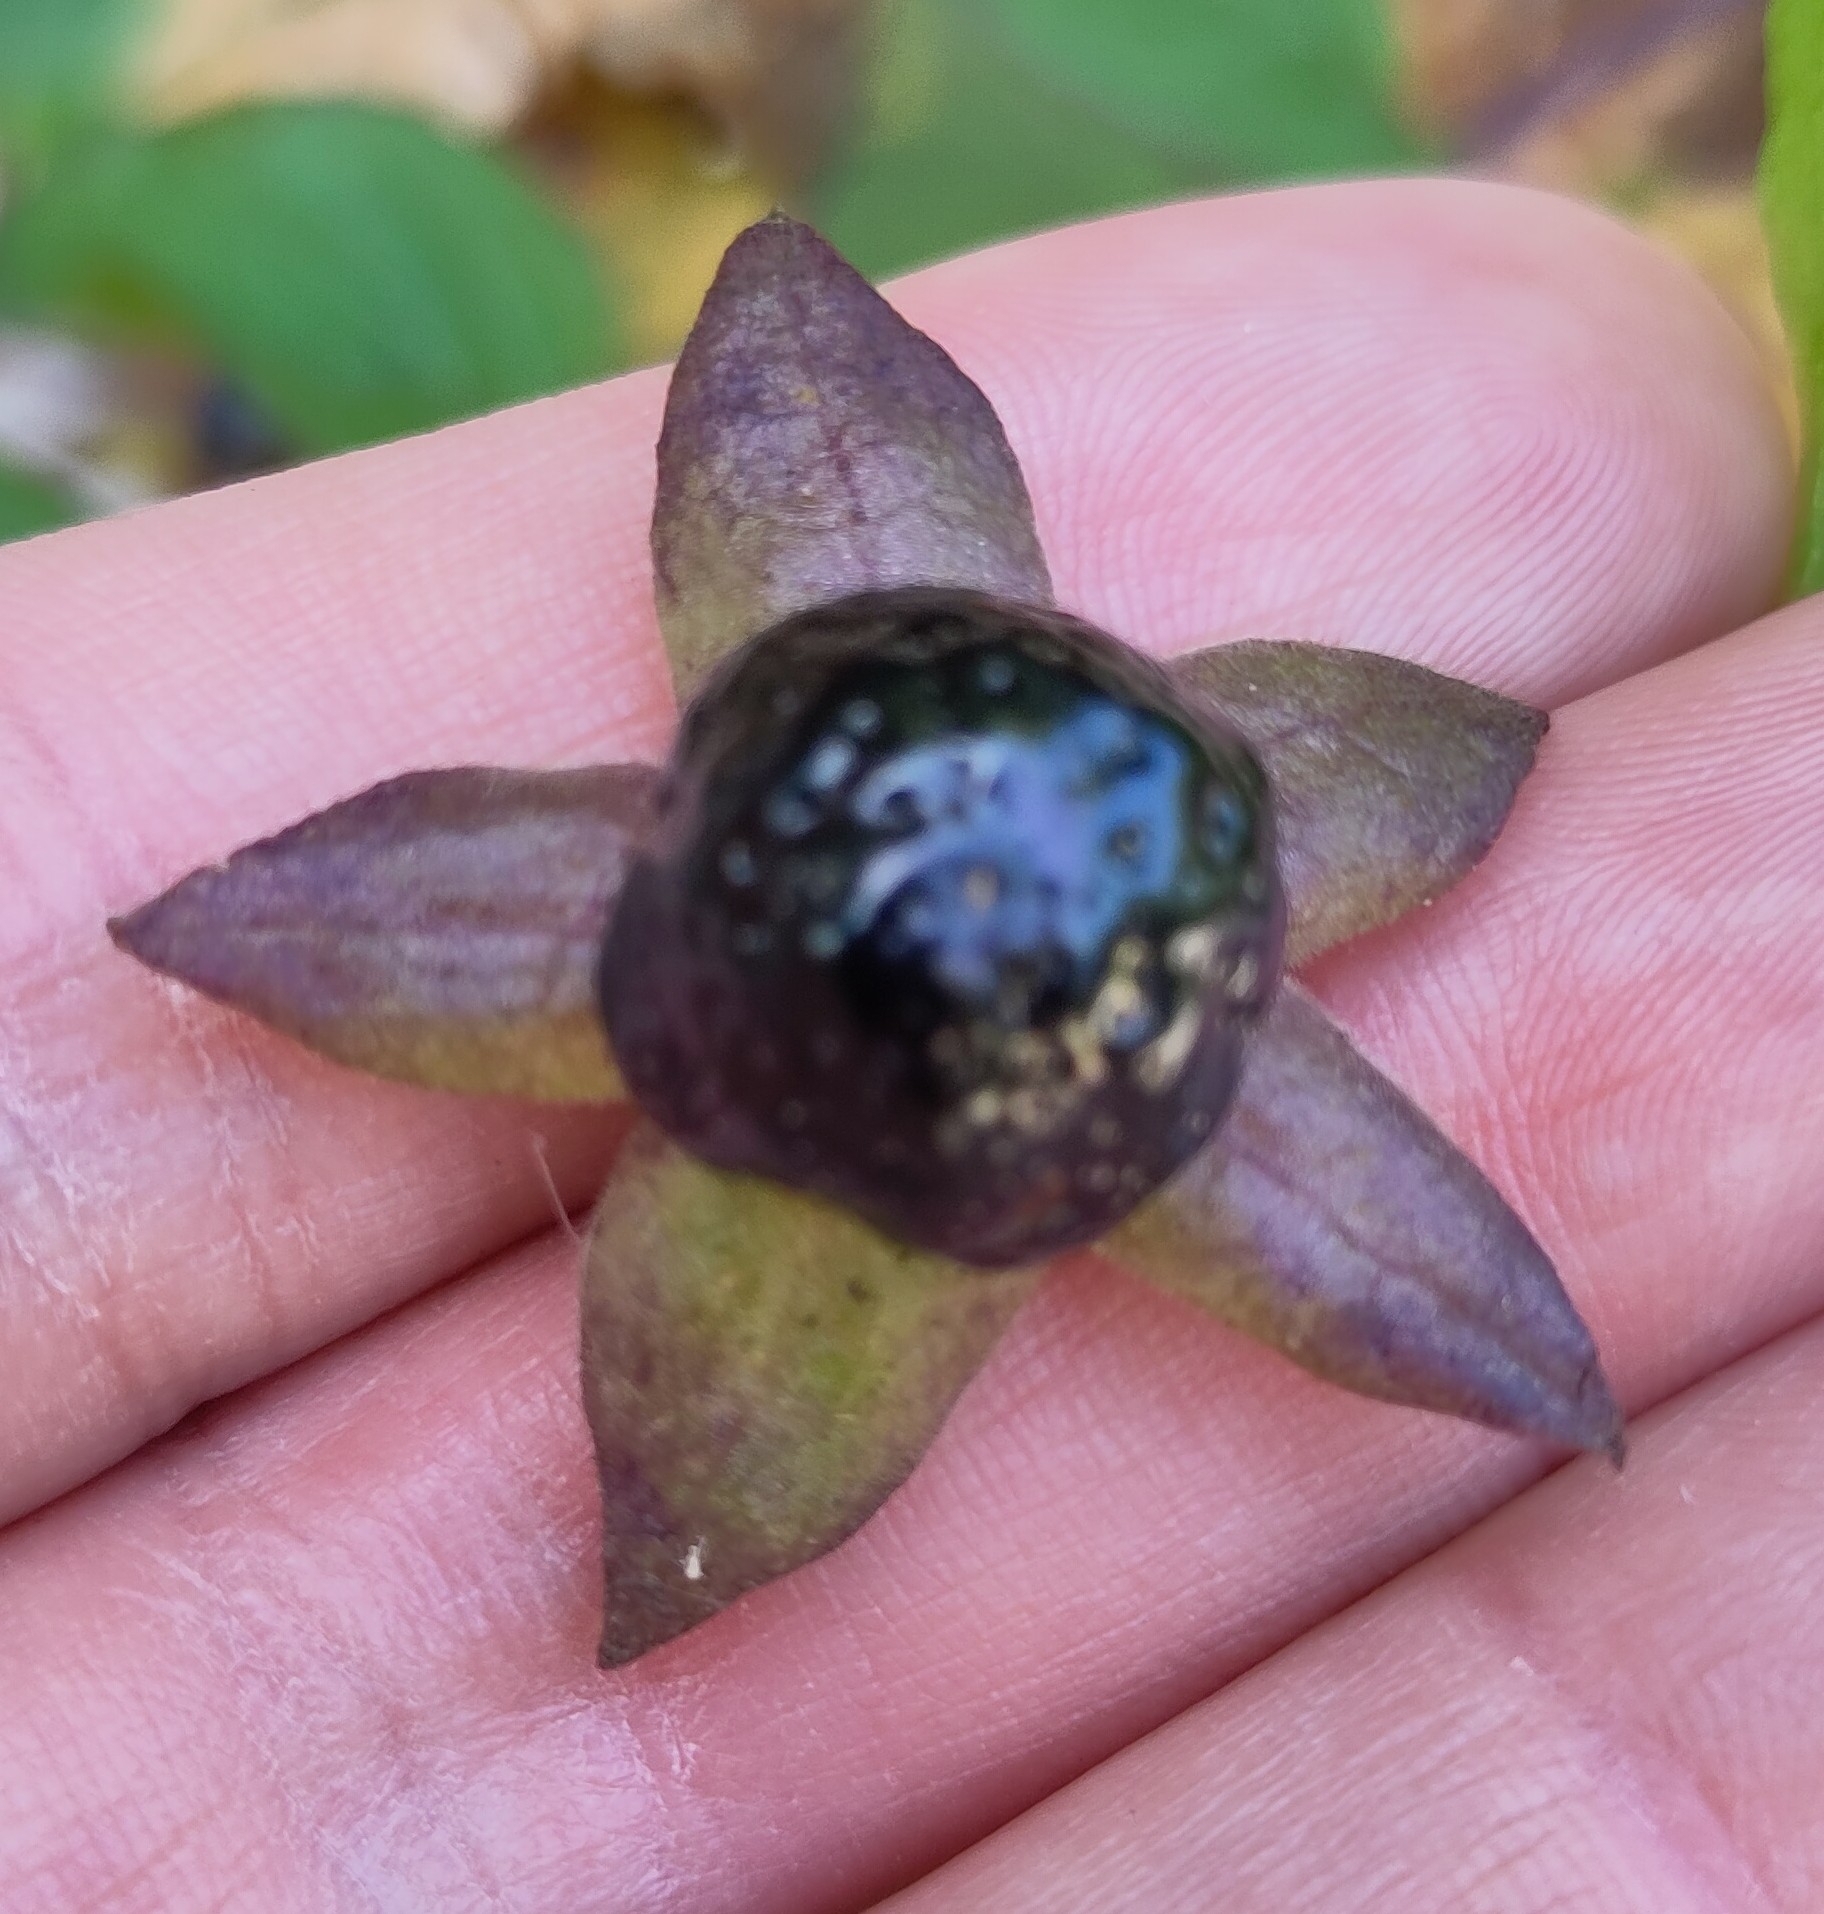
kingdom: Plantae
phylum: Tracheophyta
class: Magnoliopsida
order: Solanales
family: Solanaceae
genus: Atropa
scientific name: Atropa belladonna
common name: Deadly nightshade
